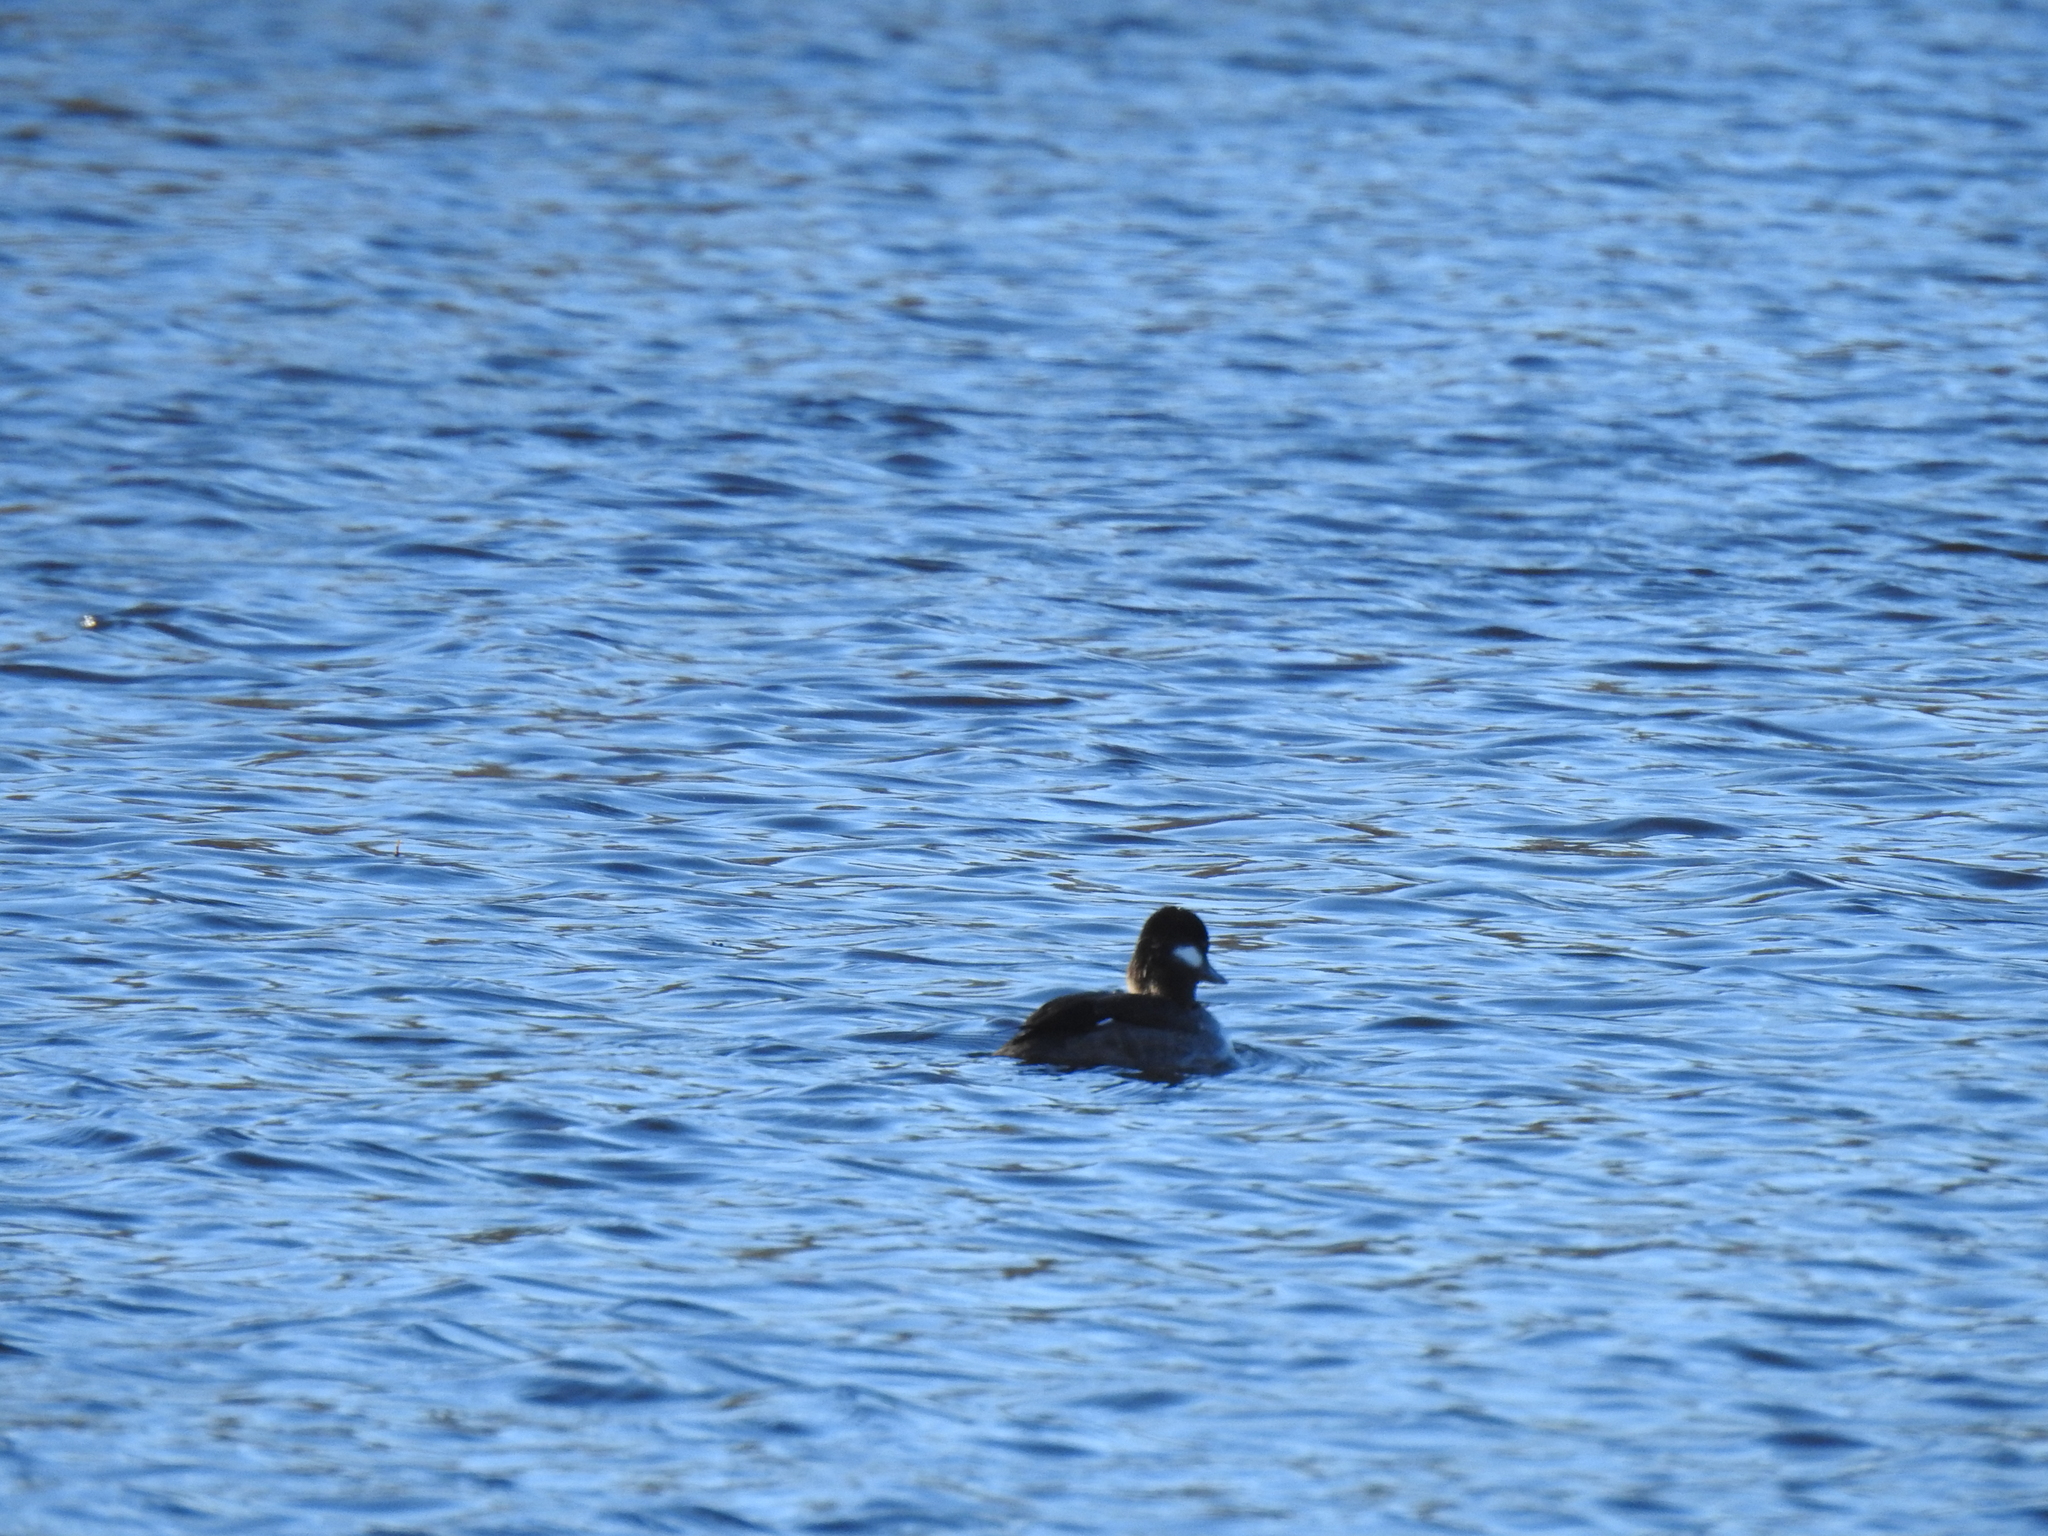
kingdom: Animalia
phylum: Chordata
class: Aves
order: Anseriformes
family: Anatidae
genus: Bucephala
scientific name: Bucephala albeola
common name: Bufflehead
